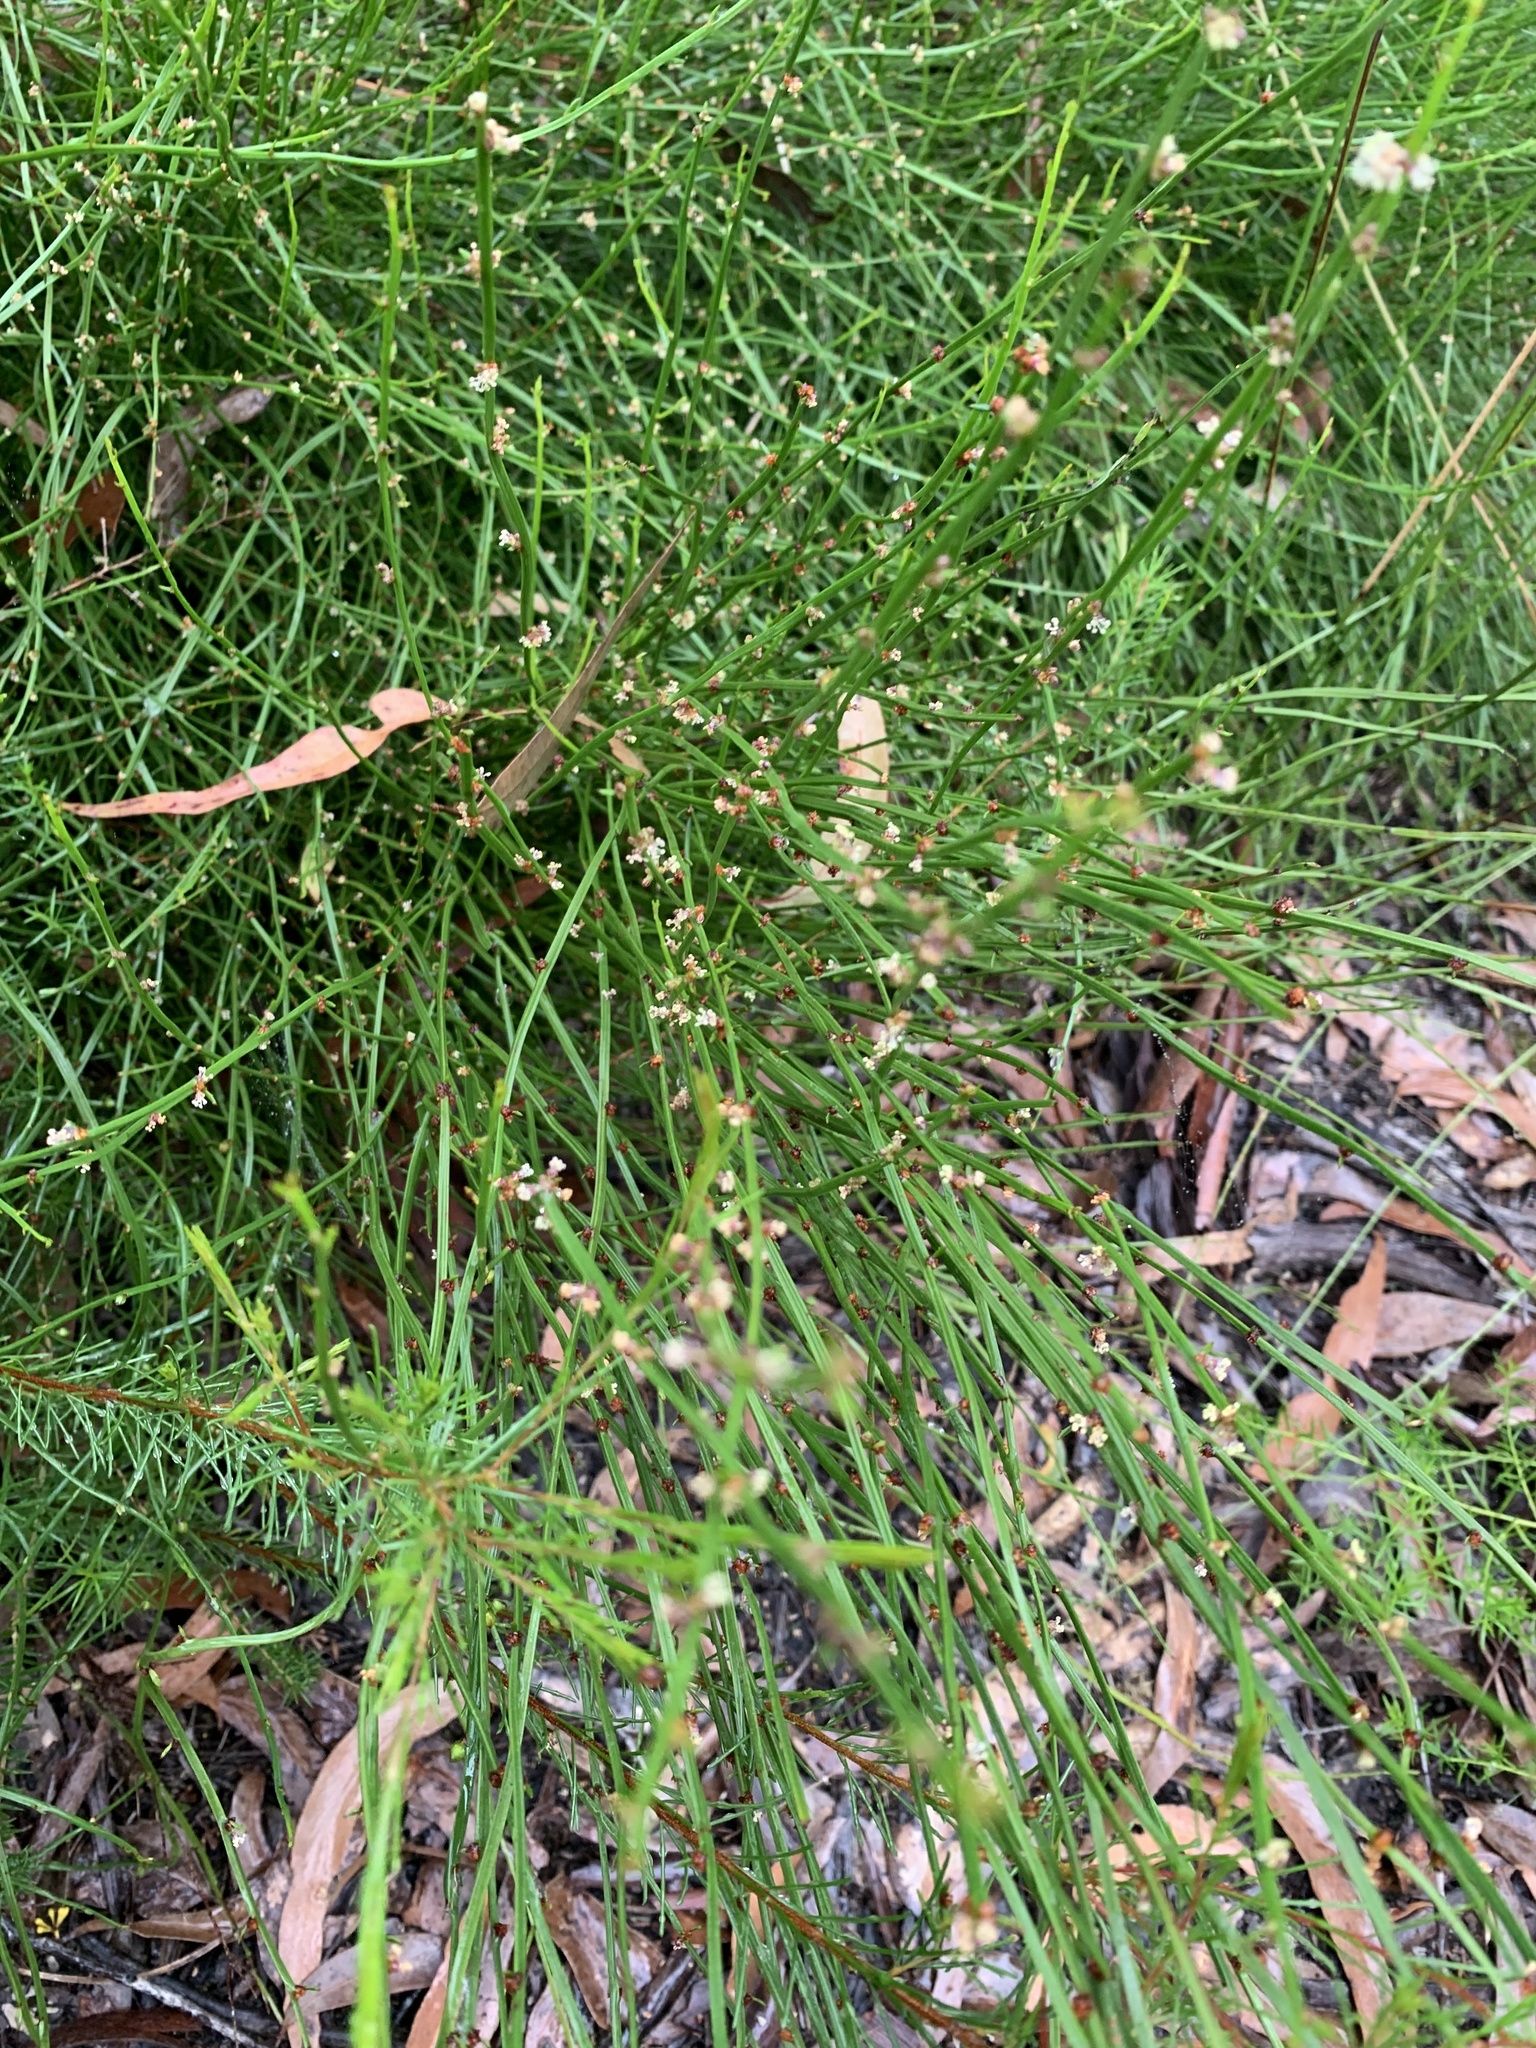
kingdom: Plantae
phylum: Tracheophyta
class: Magnoliopsida
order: Malpighiales
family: Euphorbiaceae
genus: Amperea
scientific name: Amperea xiphoclada
